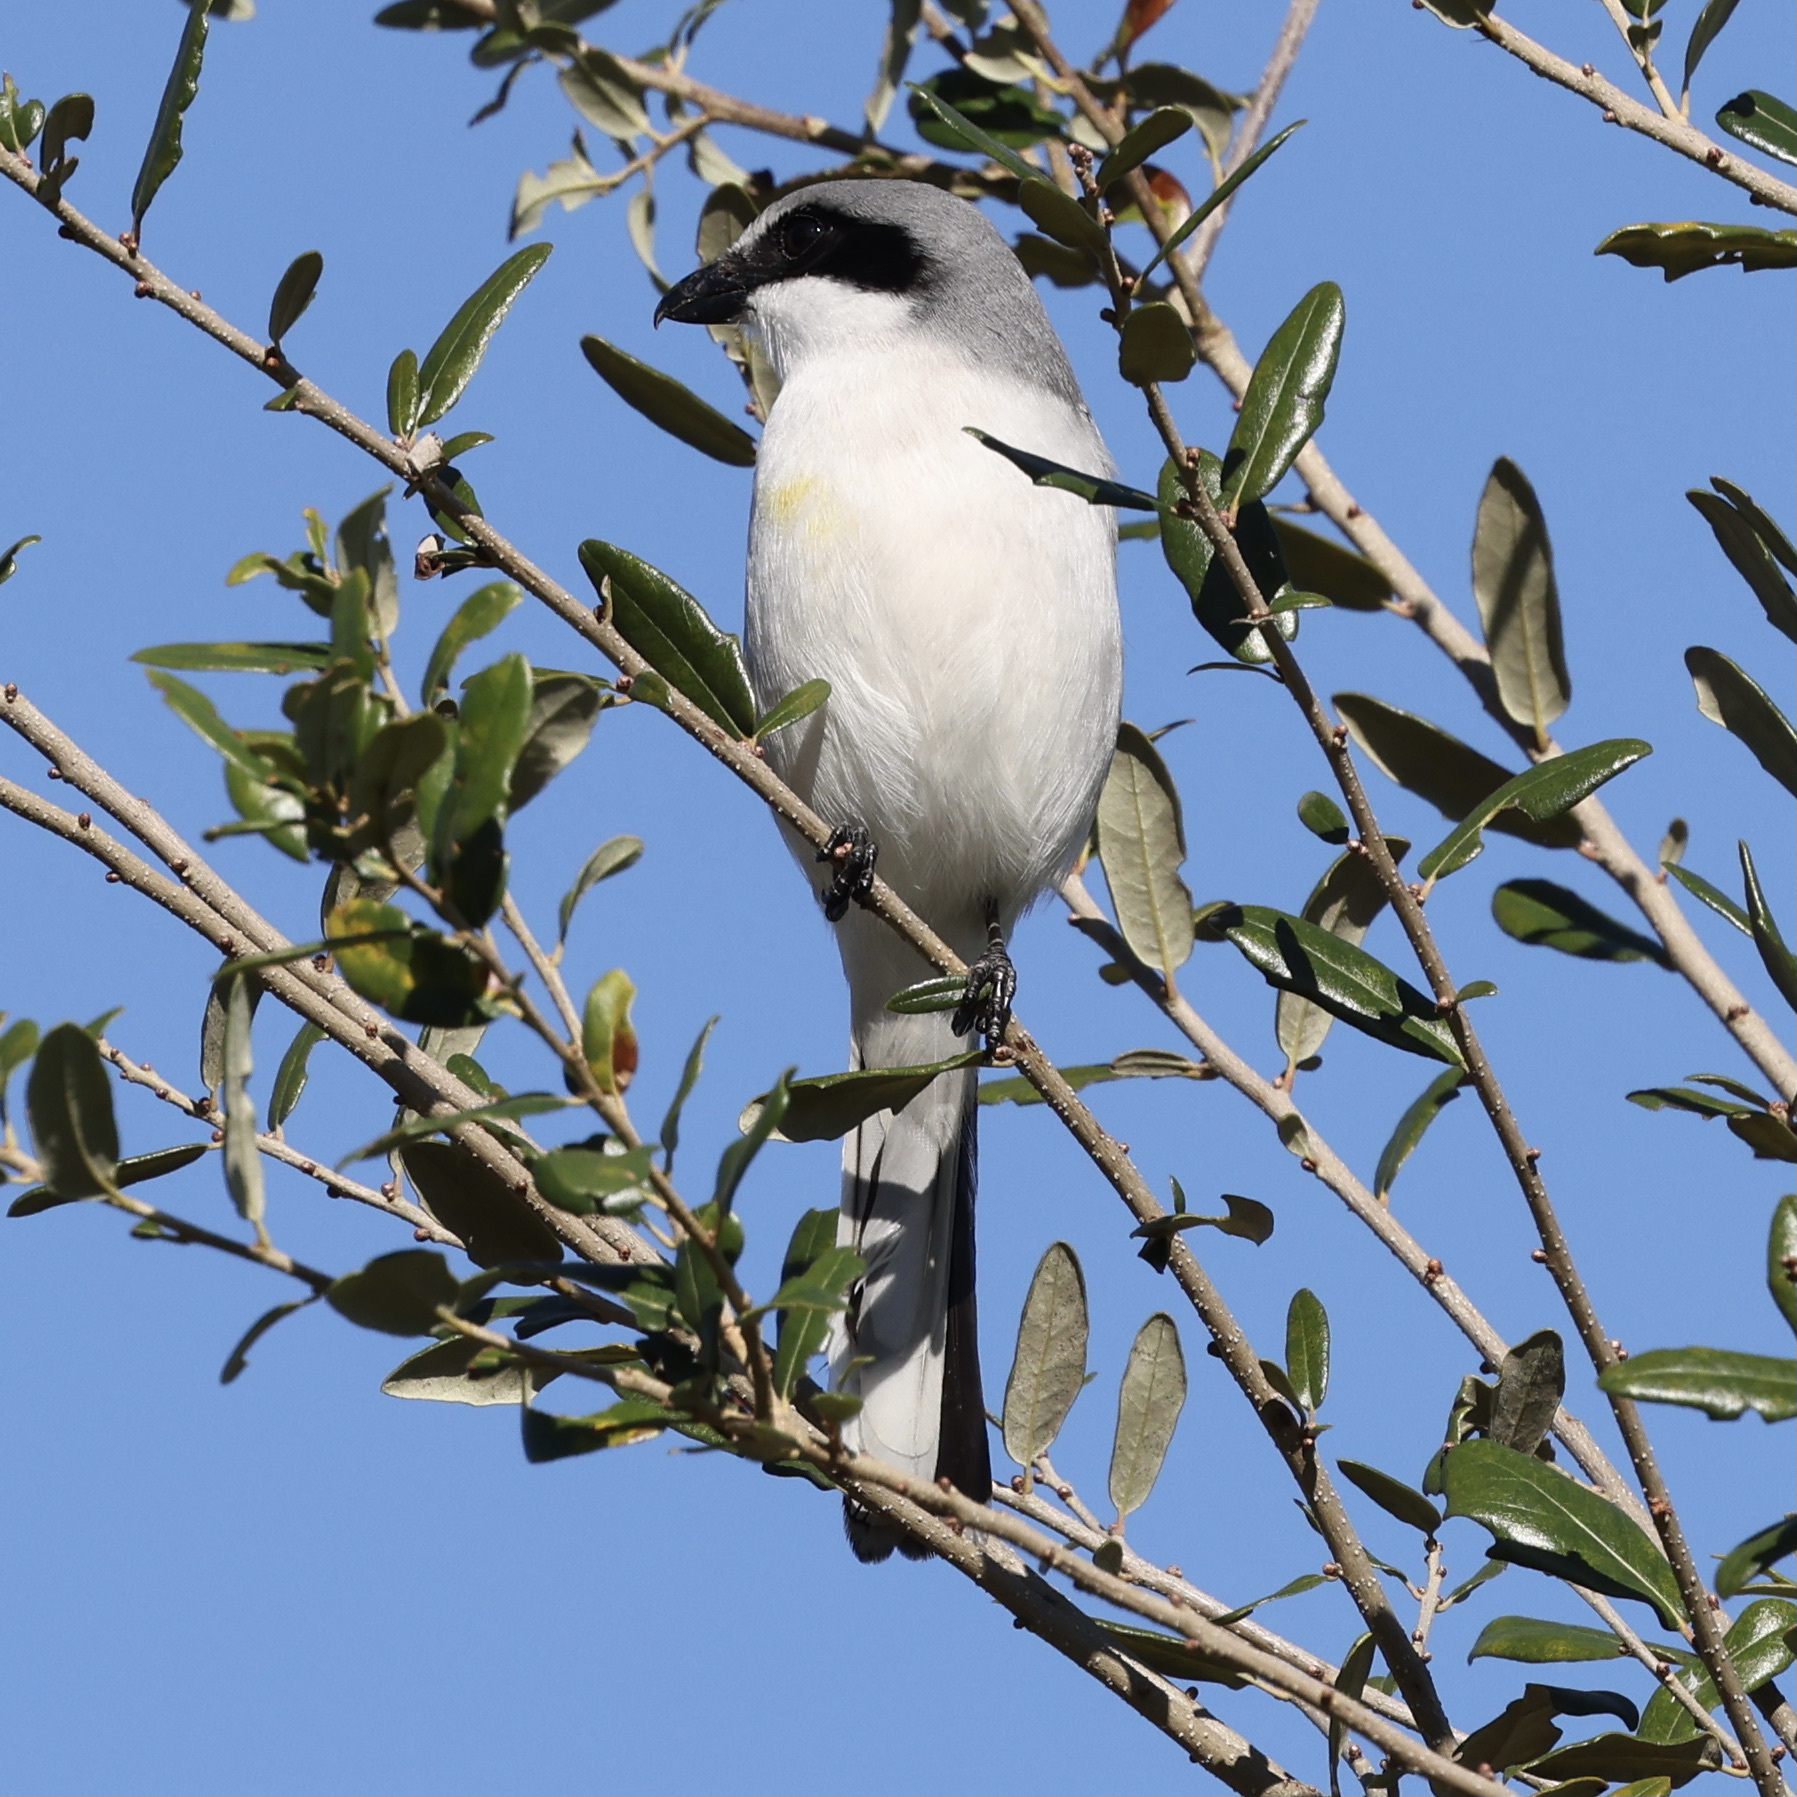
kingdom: Animalia
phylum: Chordata
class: Aves
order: Passeriformes
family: Laniidae
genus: Lanius
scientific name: Lanius ludovicianus
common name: Loggerhead shrike
